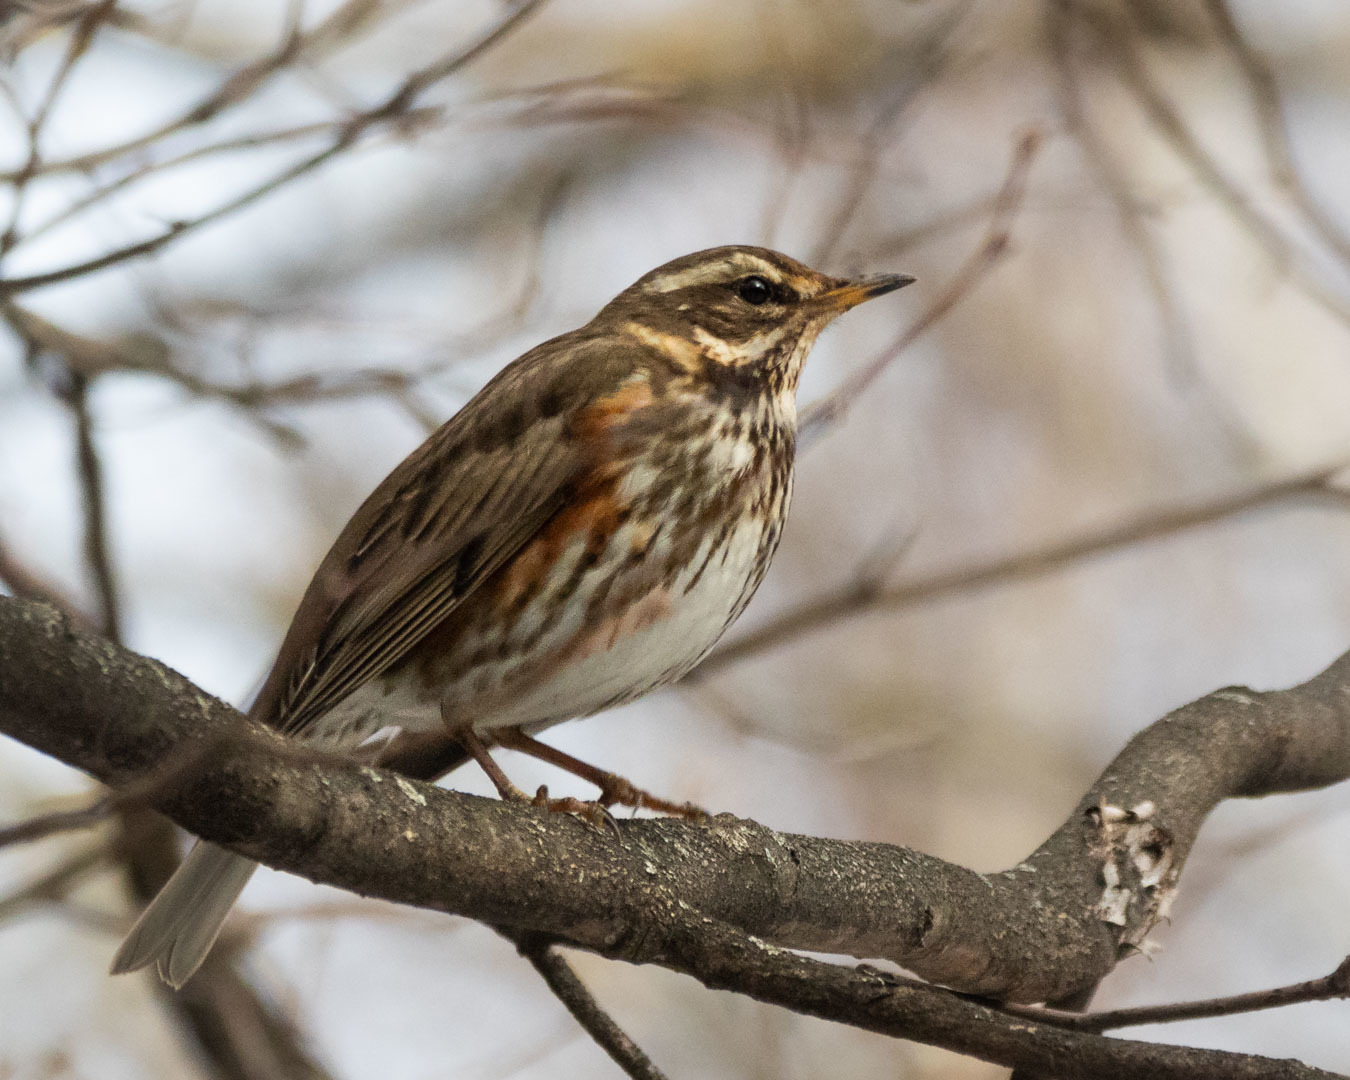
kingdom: Animalia
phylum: Chordata
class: Aves
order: Passeriformes
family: Turdidae
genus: Turdus
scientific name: Turdus iliacus
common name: Redwing
